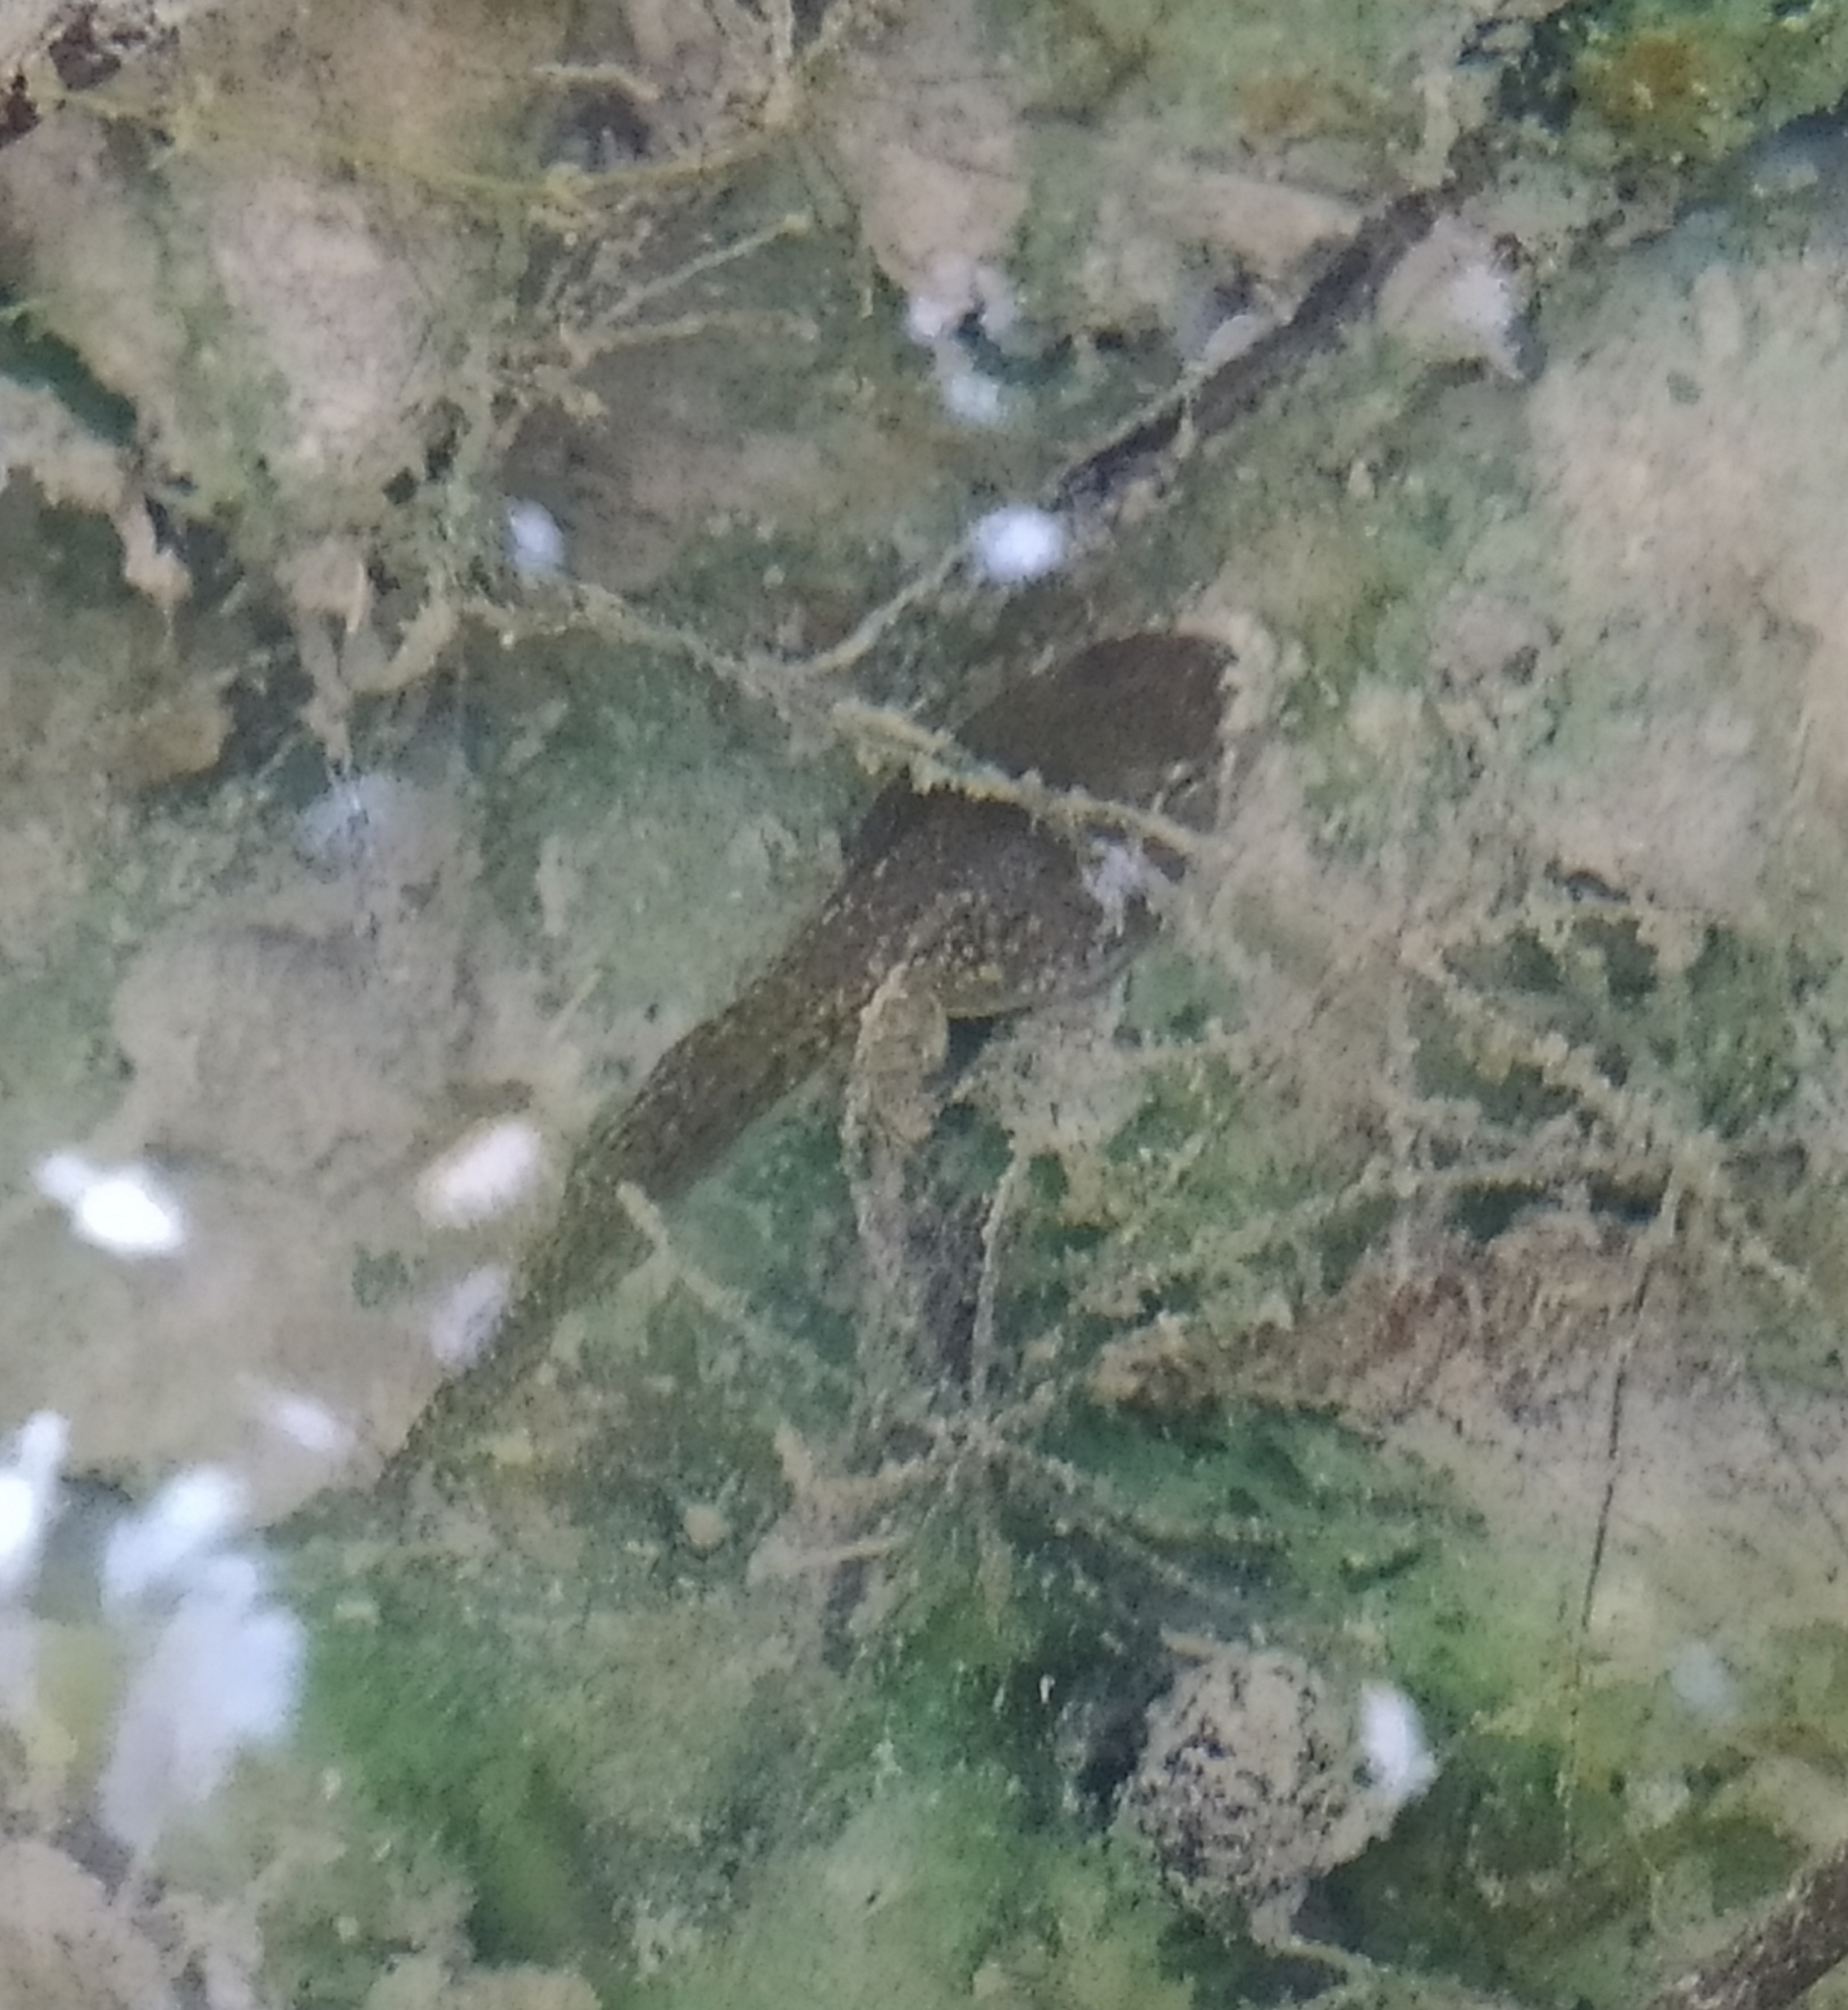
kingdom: Animalia
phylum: Chordata
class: Amphibia
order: Anura
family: Ranidae
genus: Pelophylax
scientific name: Pelophylax
